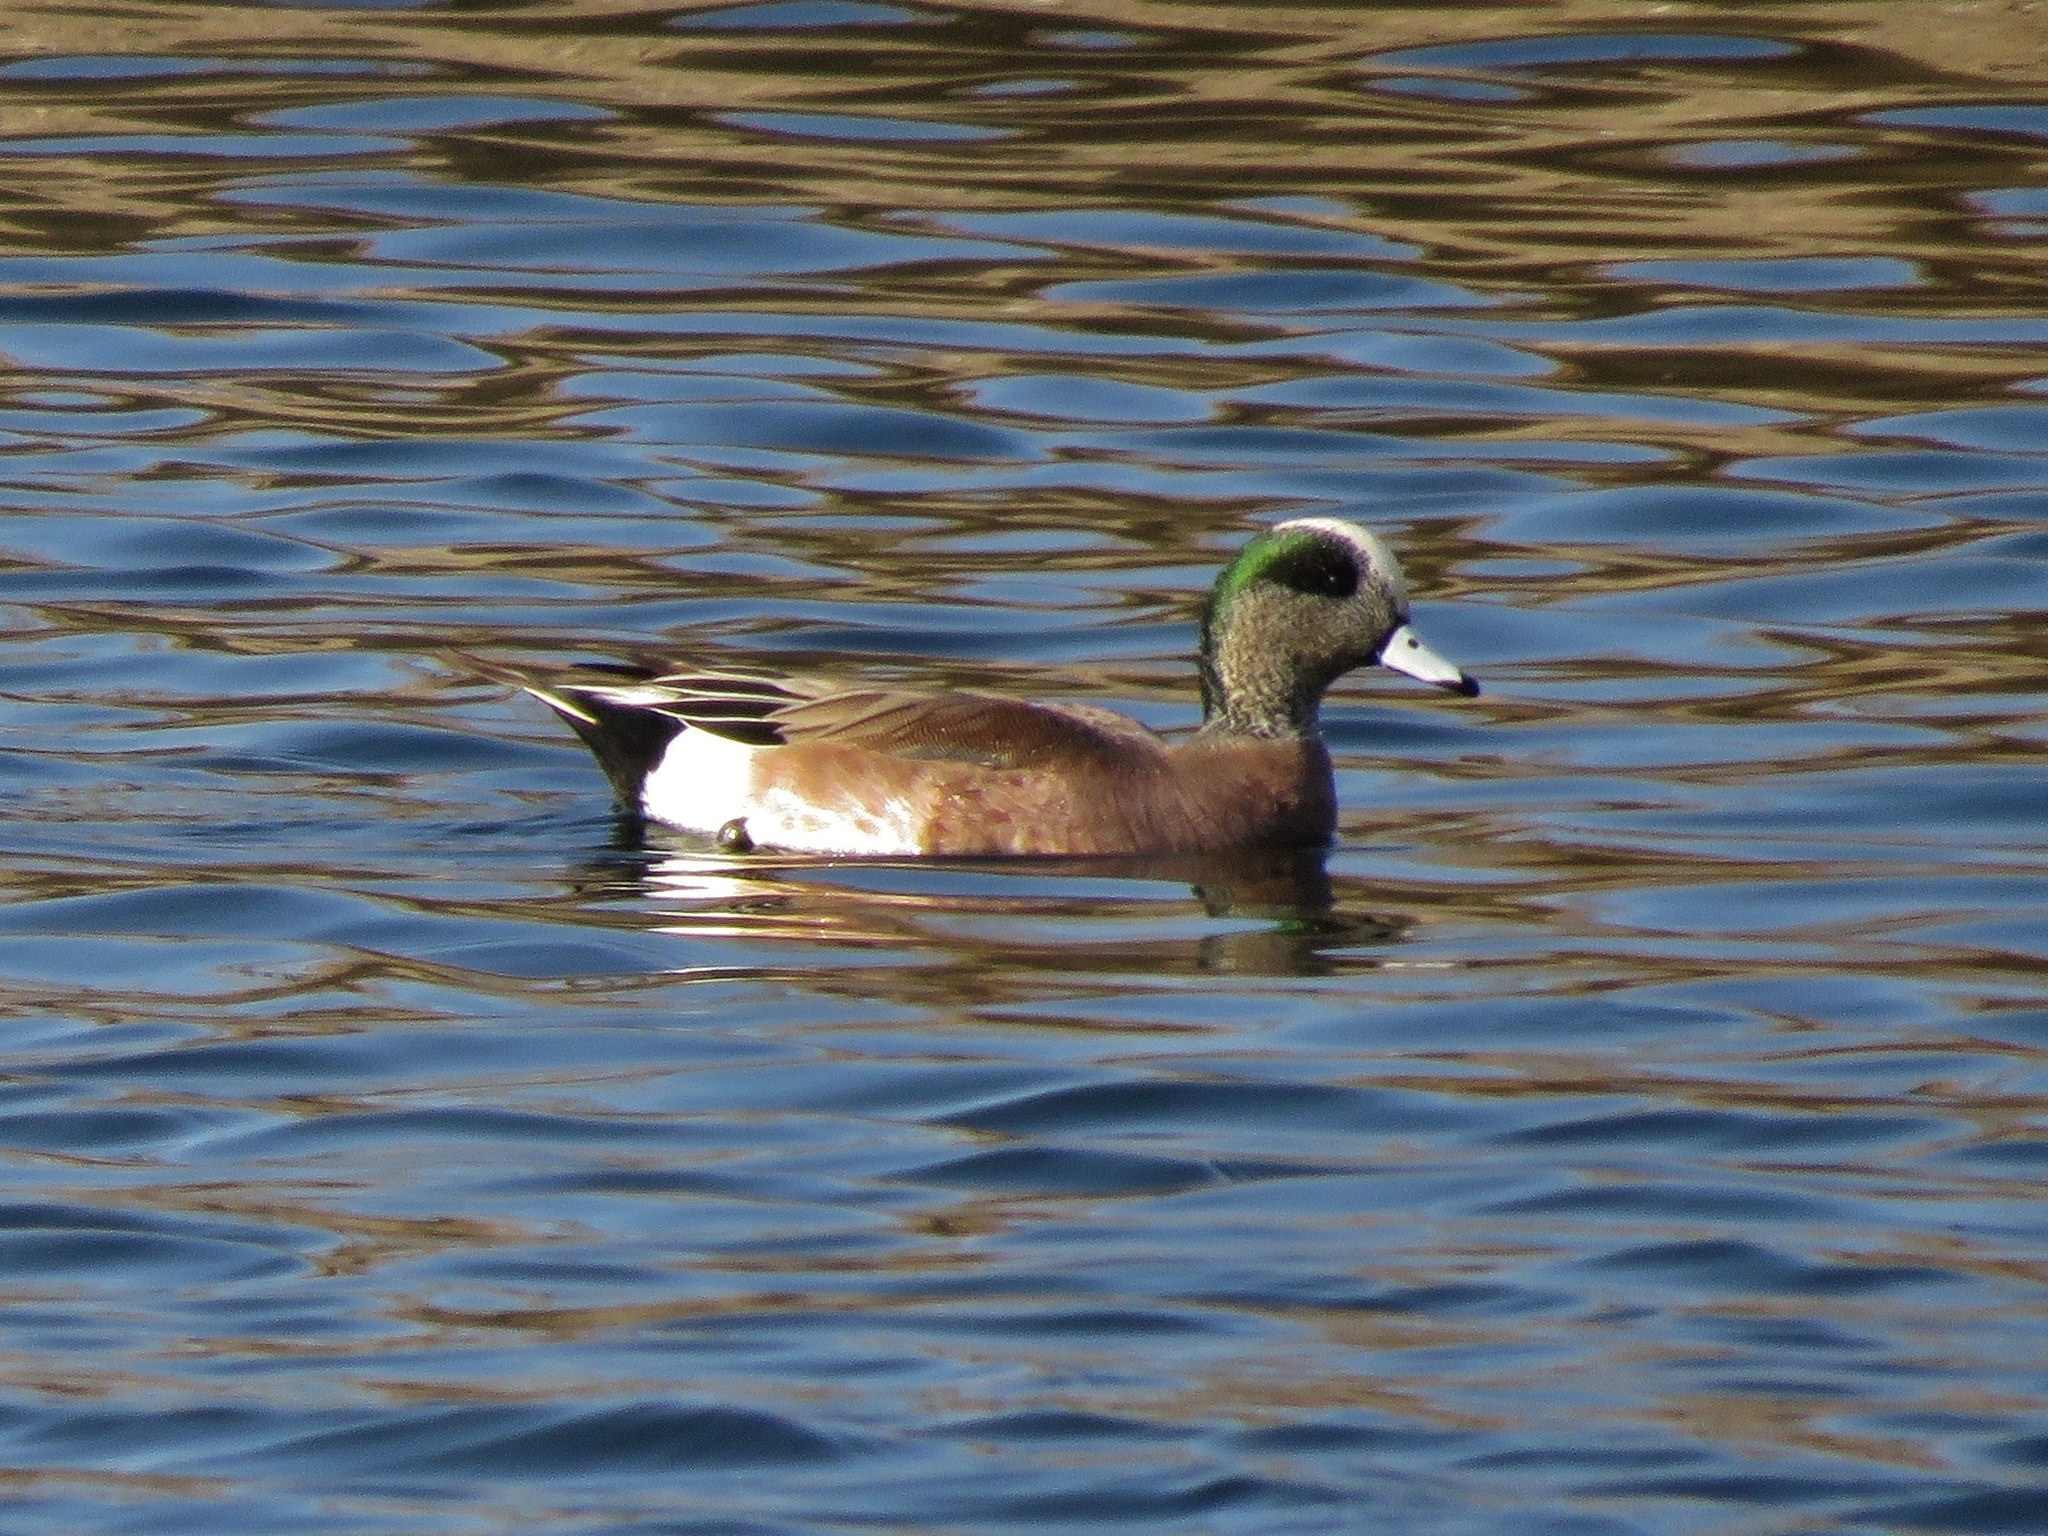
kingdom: Animalia
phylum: Chordata
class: Aves
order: Anseriformes
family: Anatidae
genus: Mareca
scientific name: Mareca americana
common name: American wigeon
